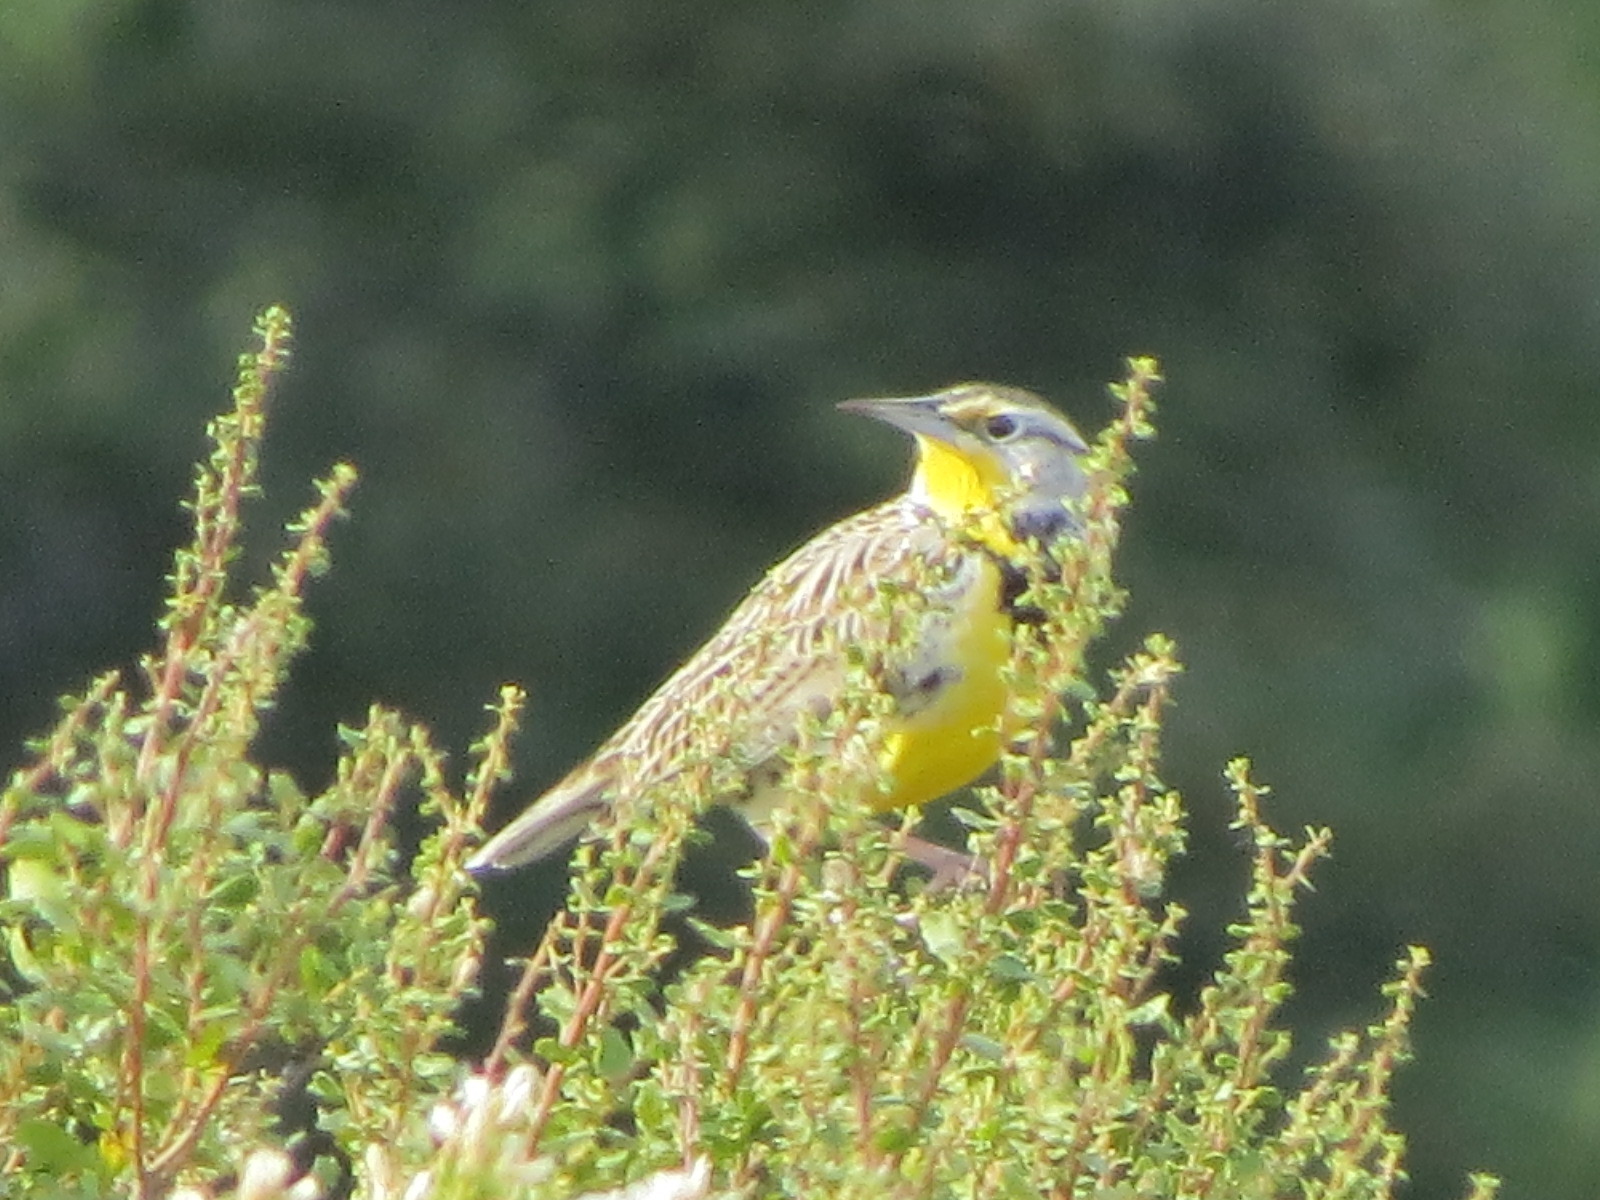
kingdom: Animalia
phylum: Chordata
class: Aves
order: Passeriformes
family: Icteridae
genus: Sturnella
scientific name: Sturnella neglecta
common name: Western meadowlark
